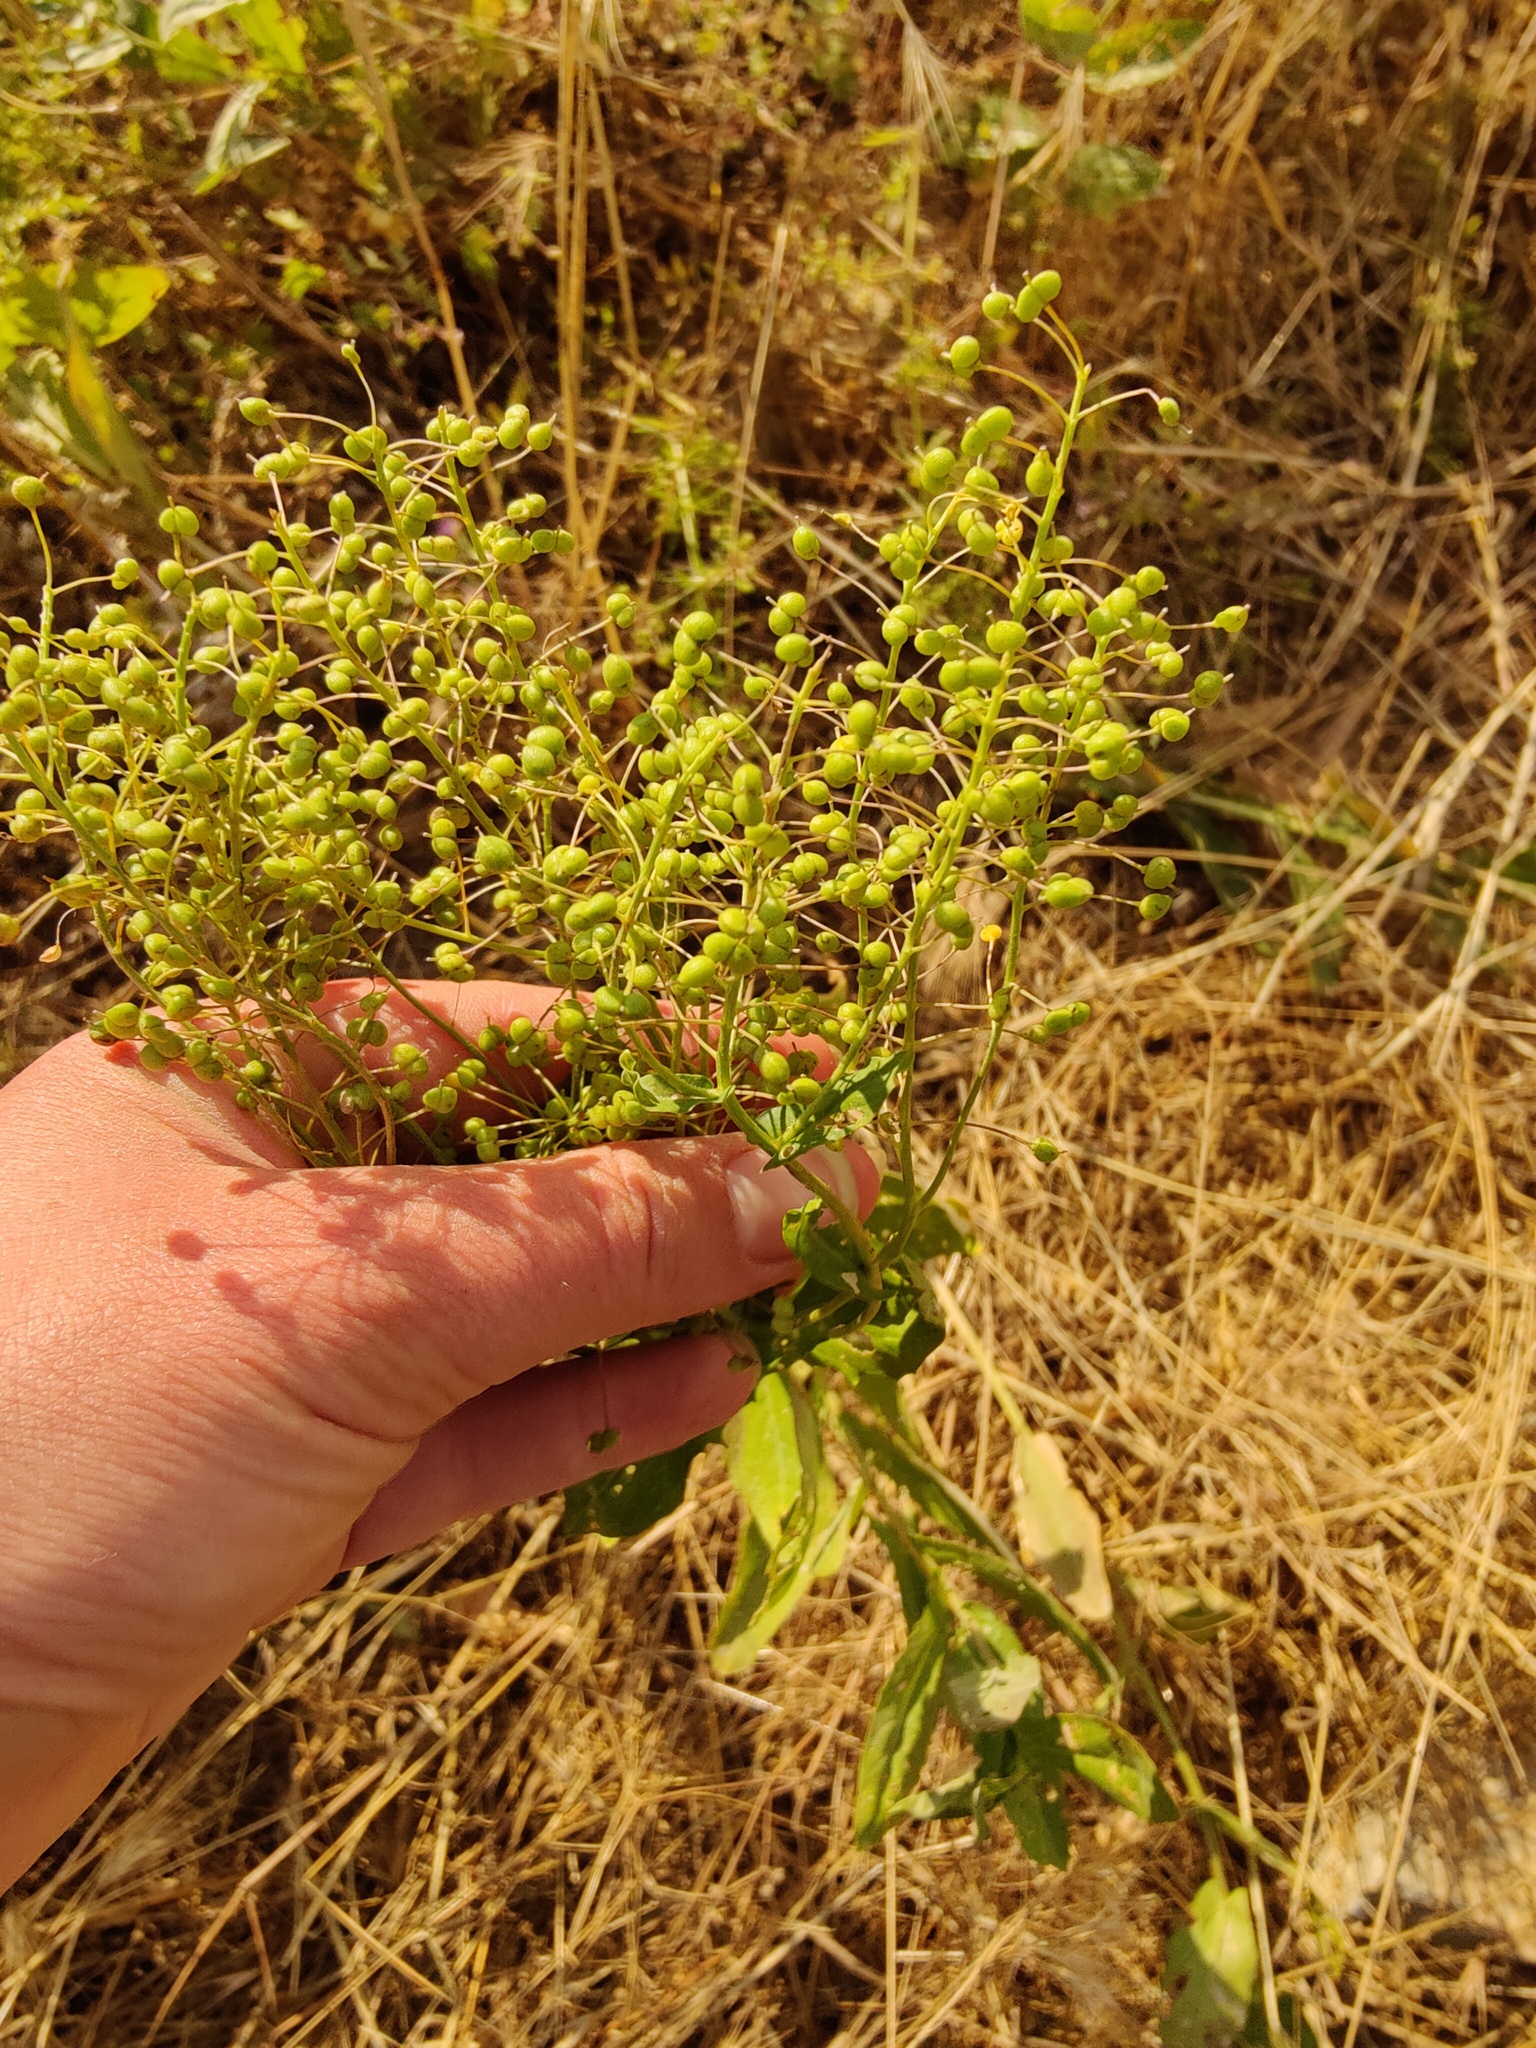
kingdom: Plantae
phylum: Tracheophyta
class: Magnoliopsida
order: Brassicales
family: Brassicaceae
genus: Lepidium
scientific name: Lepidium draba
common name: Hoary cress
